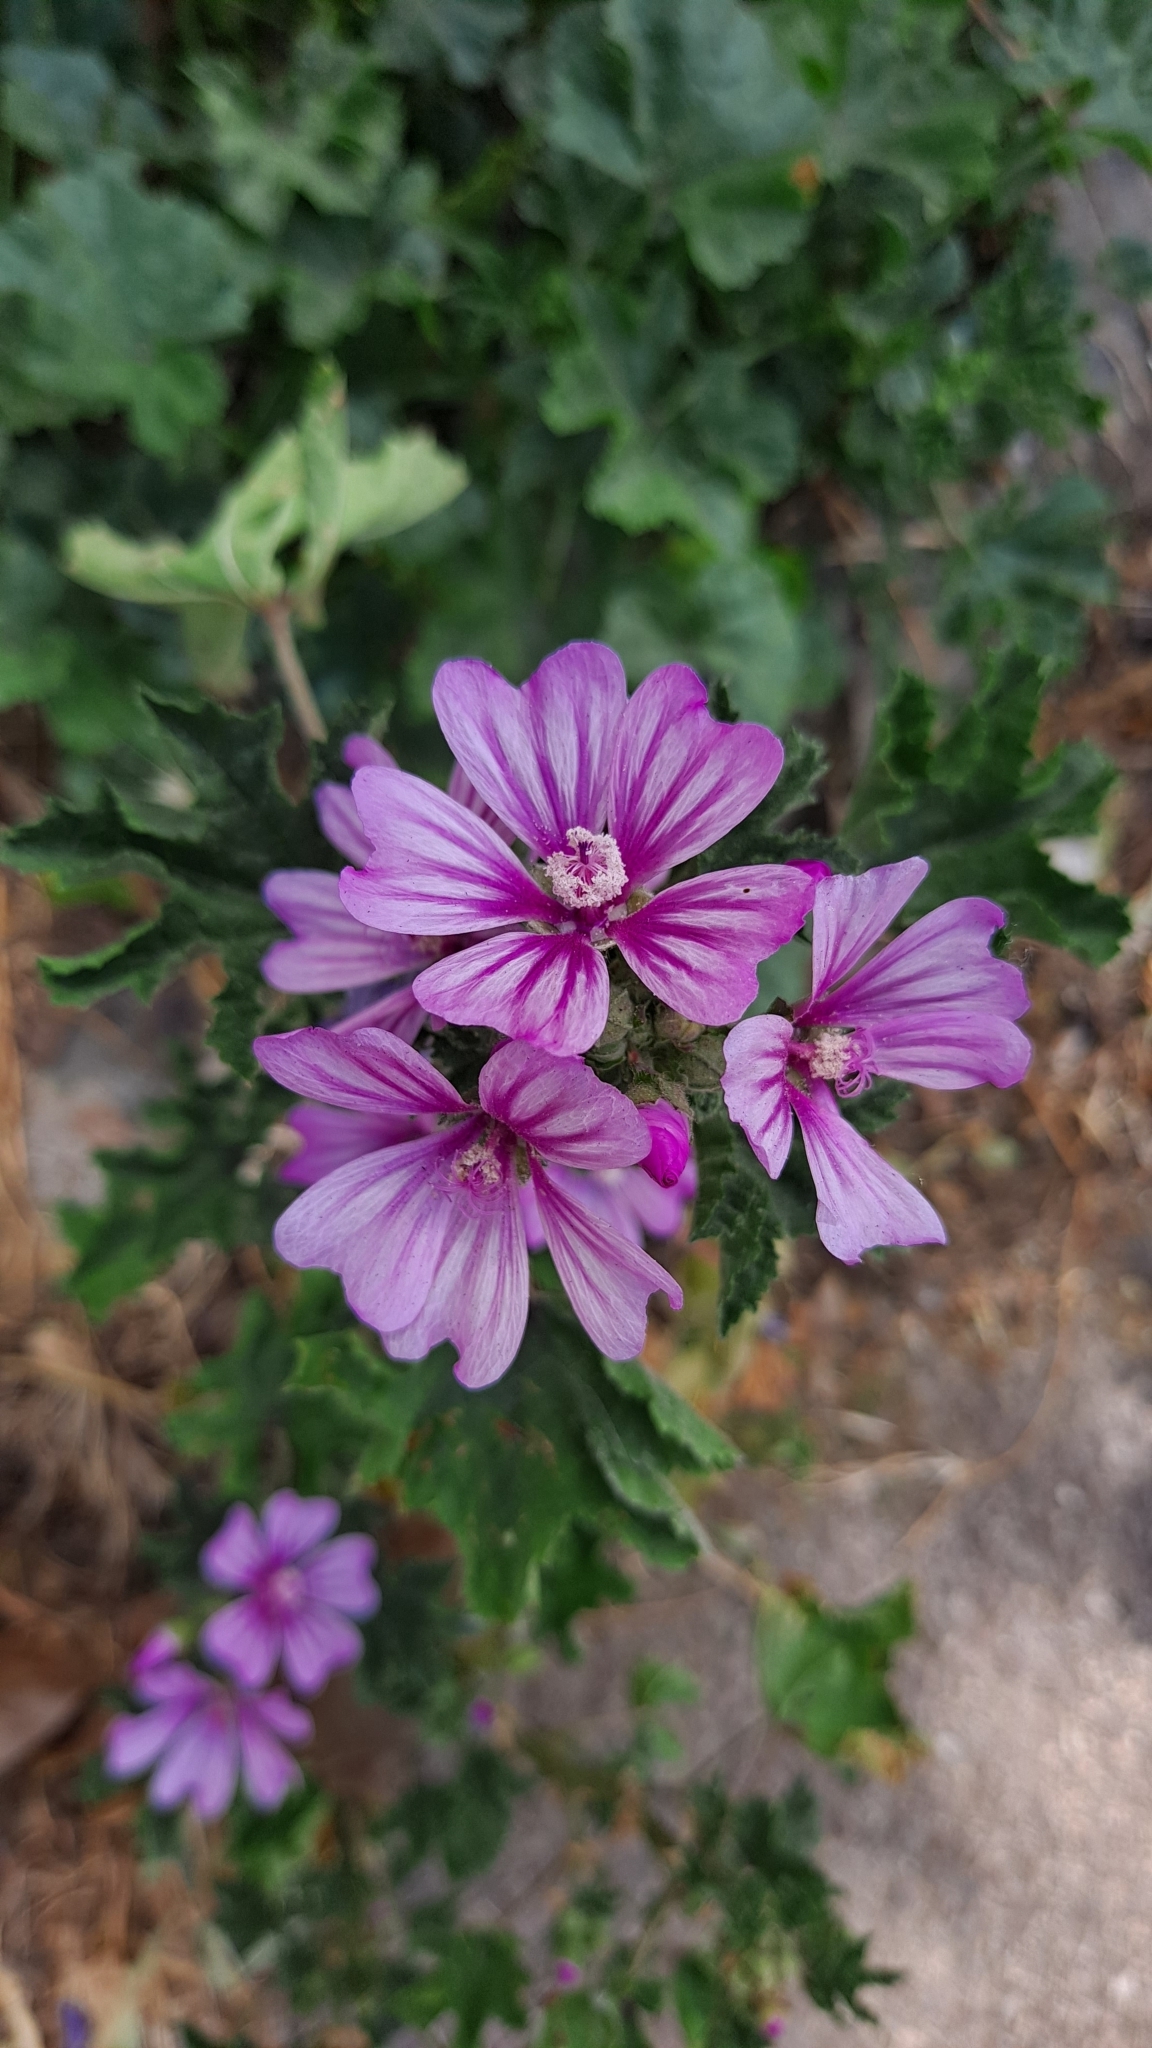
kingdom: Plantae
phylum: Tracheophyta
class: Magnoliopsida
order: Malvales
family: Malvaceae
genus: Malva
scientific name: Malva sylvestris
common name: Common mallow
